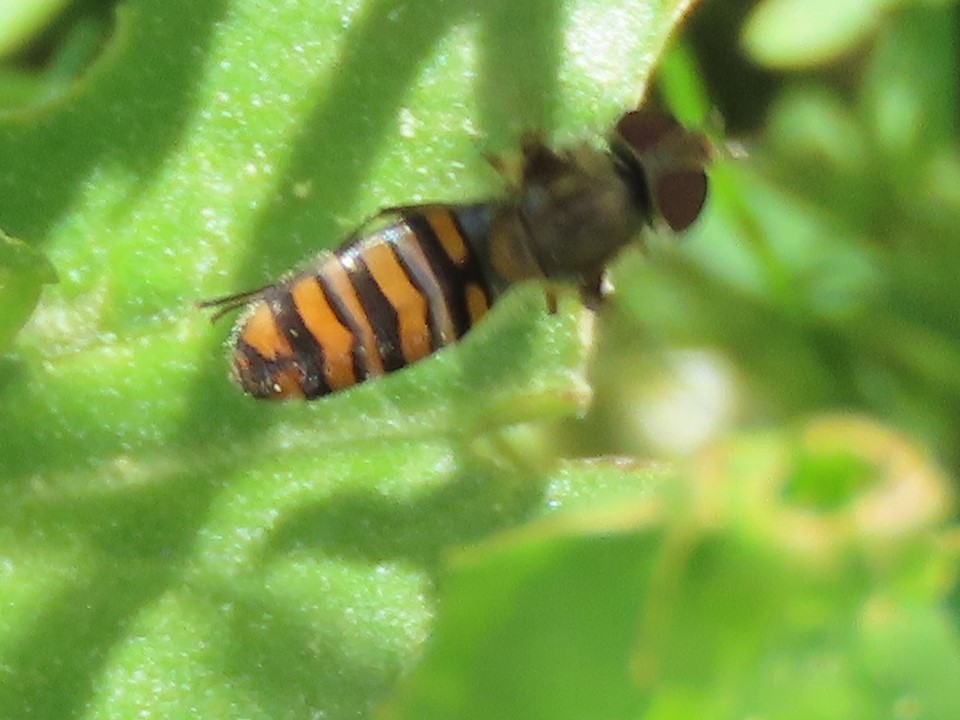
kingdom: Animalia
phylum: Arthropoda
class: Insecta
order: Diptera
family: Syrphidae
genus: Episyrphus
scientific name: Episyrphus balteatus
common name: Marmalade hoverfly
